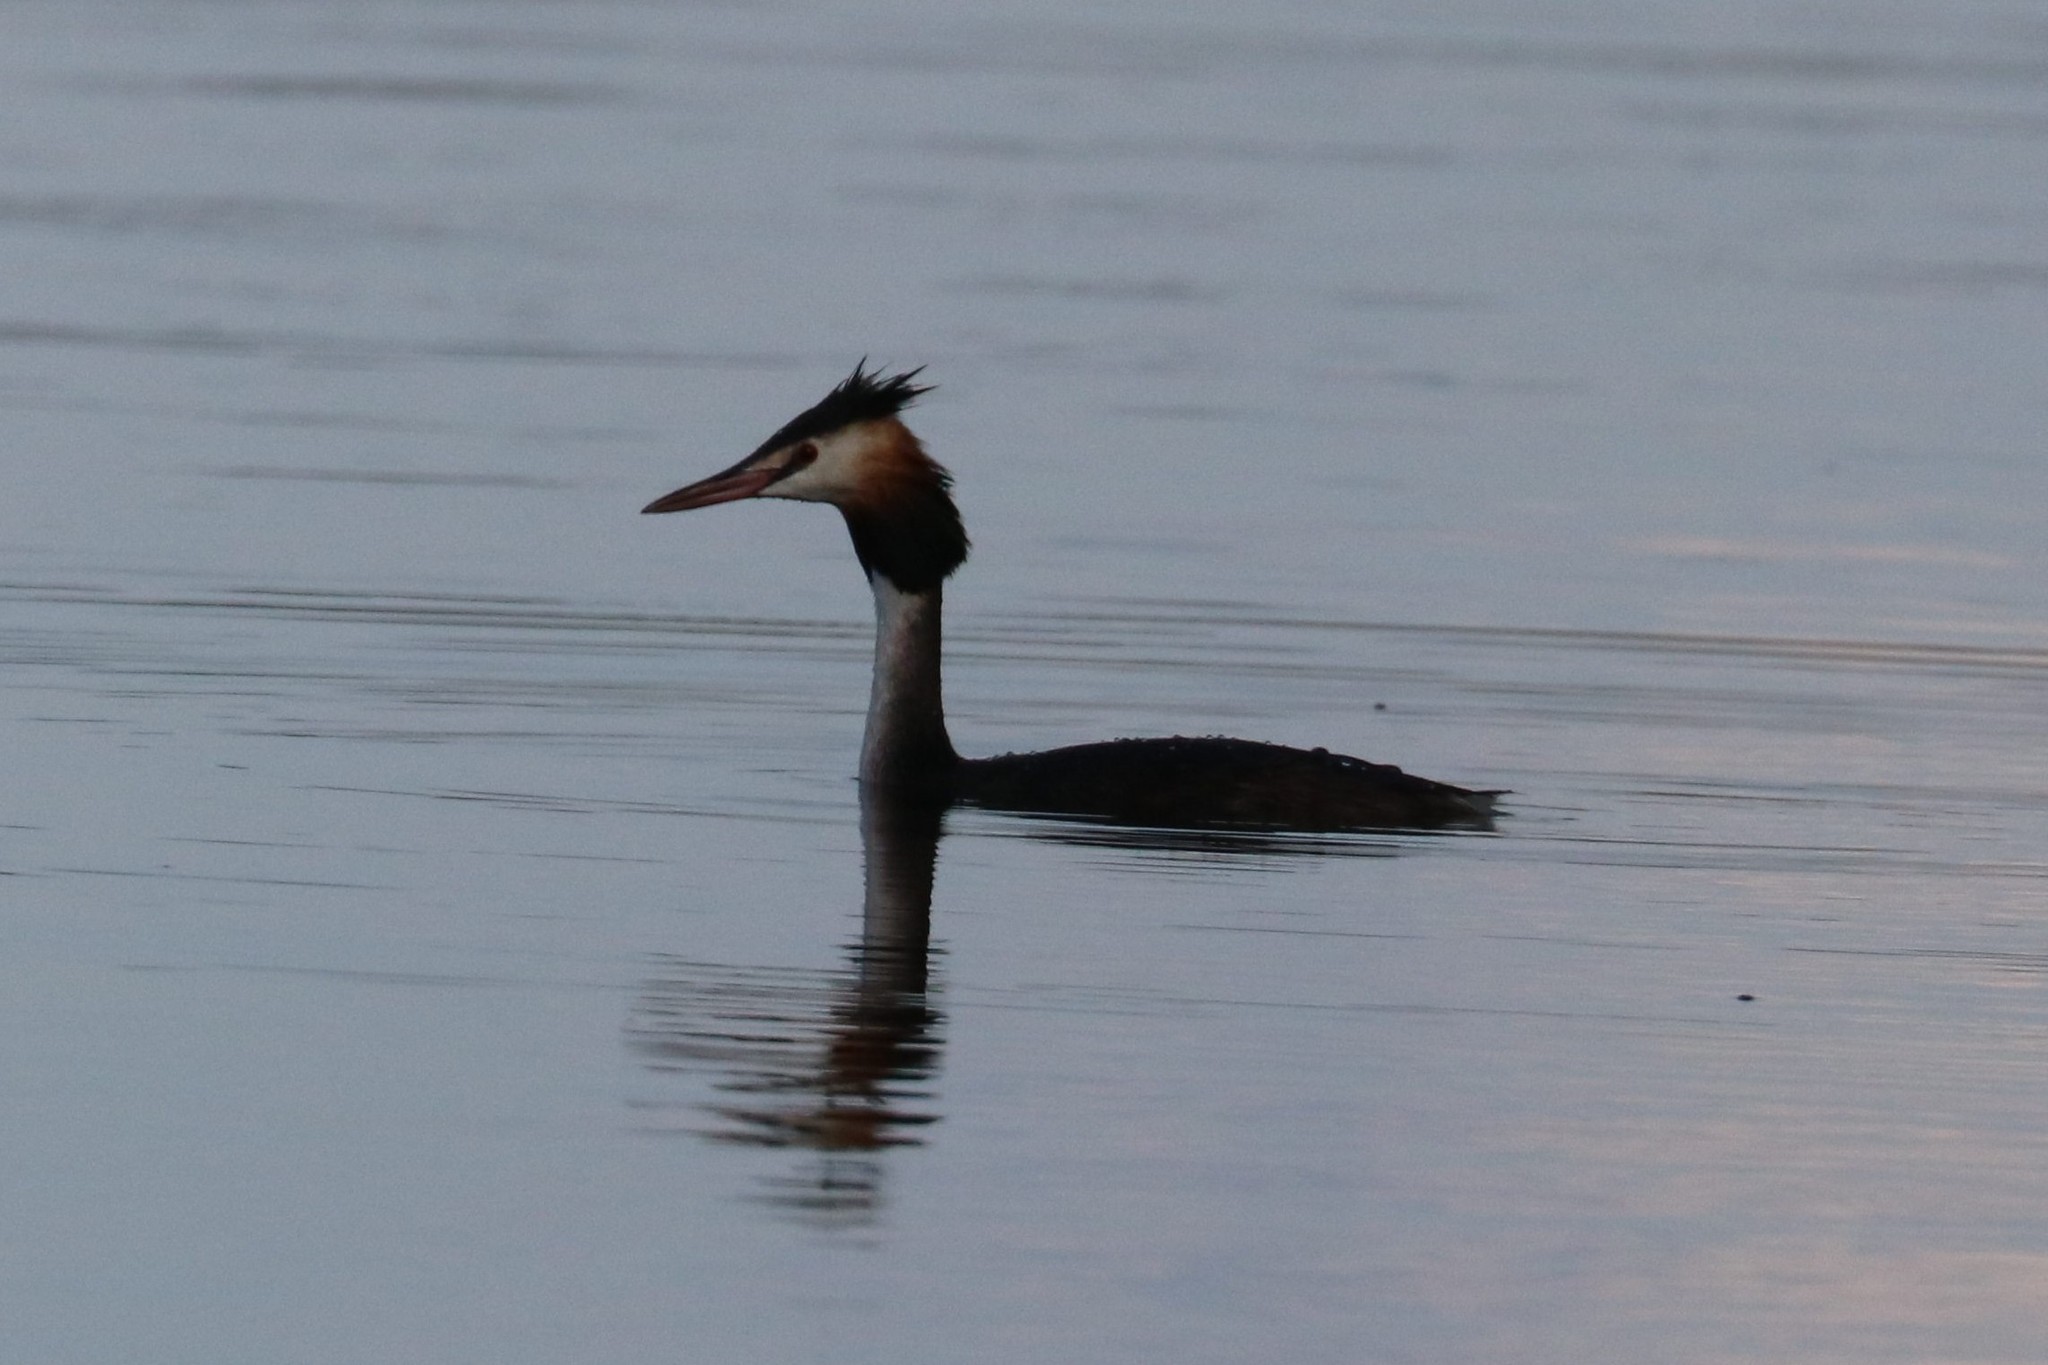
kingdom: Animalia
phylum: Chordata
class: Aves
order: Podicipediformes
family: Podicipedidae
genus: Podiceps
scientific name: Podiceps cristatus
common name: Great crested grebe
